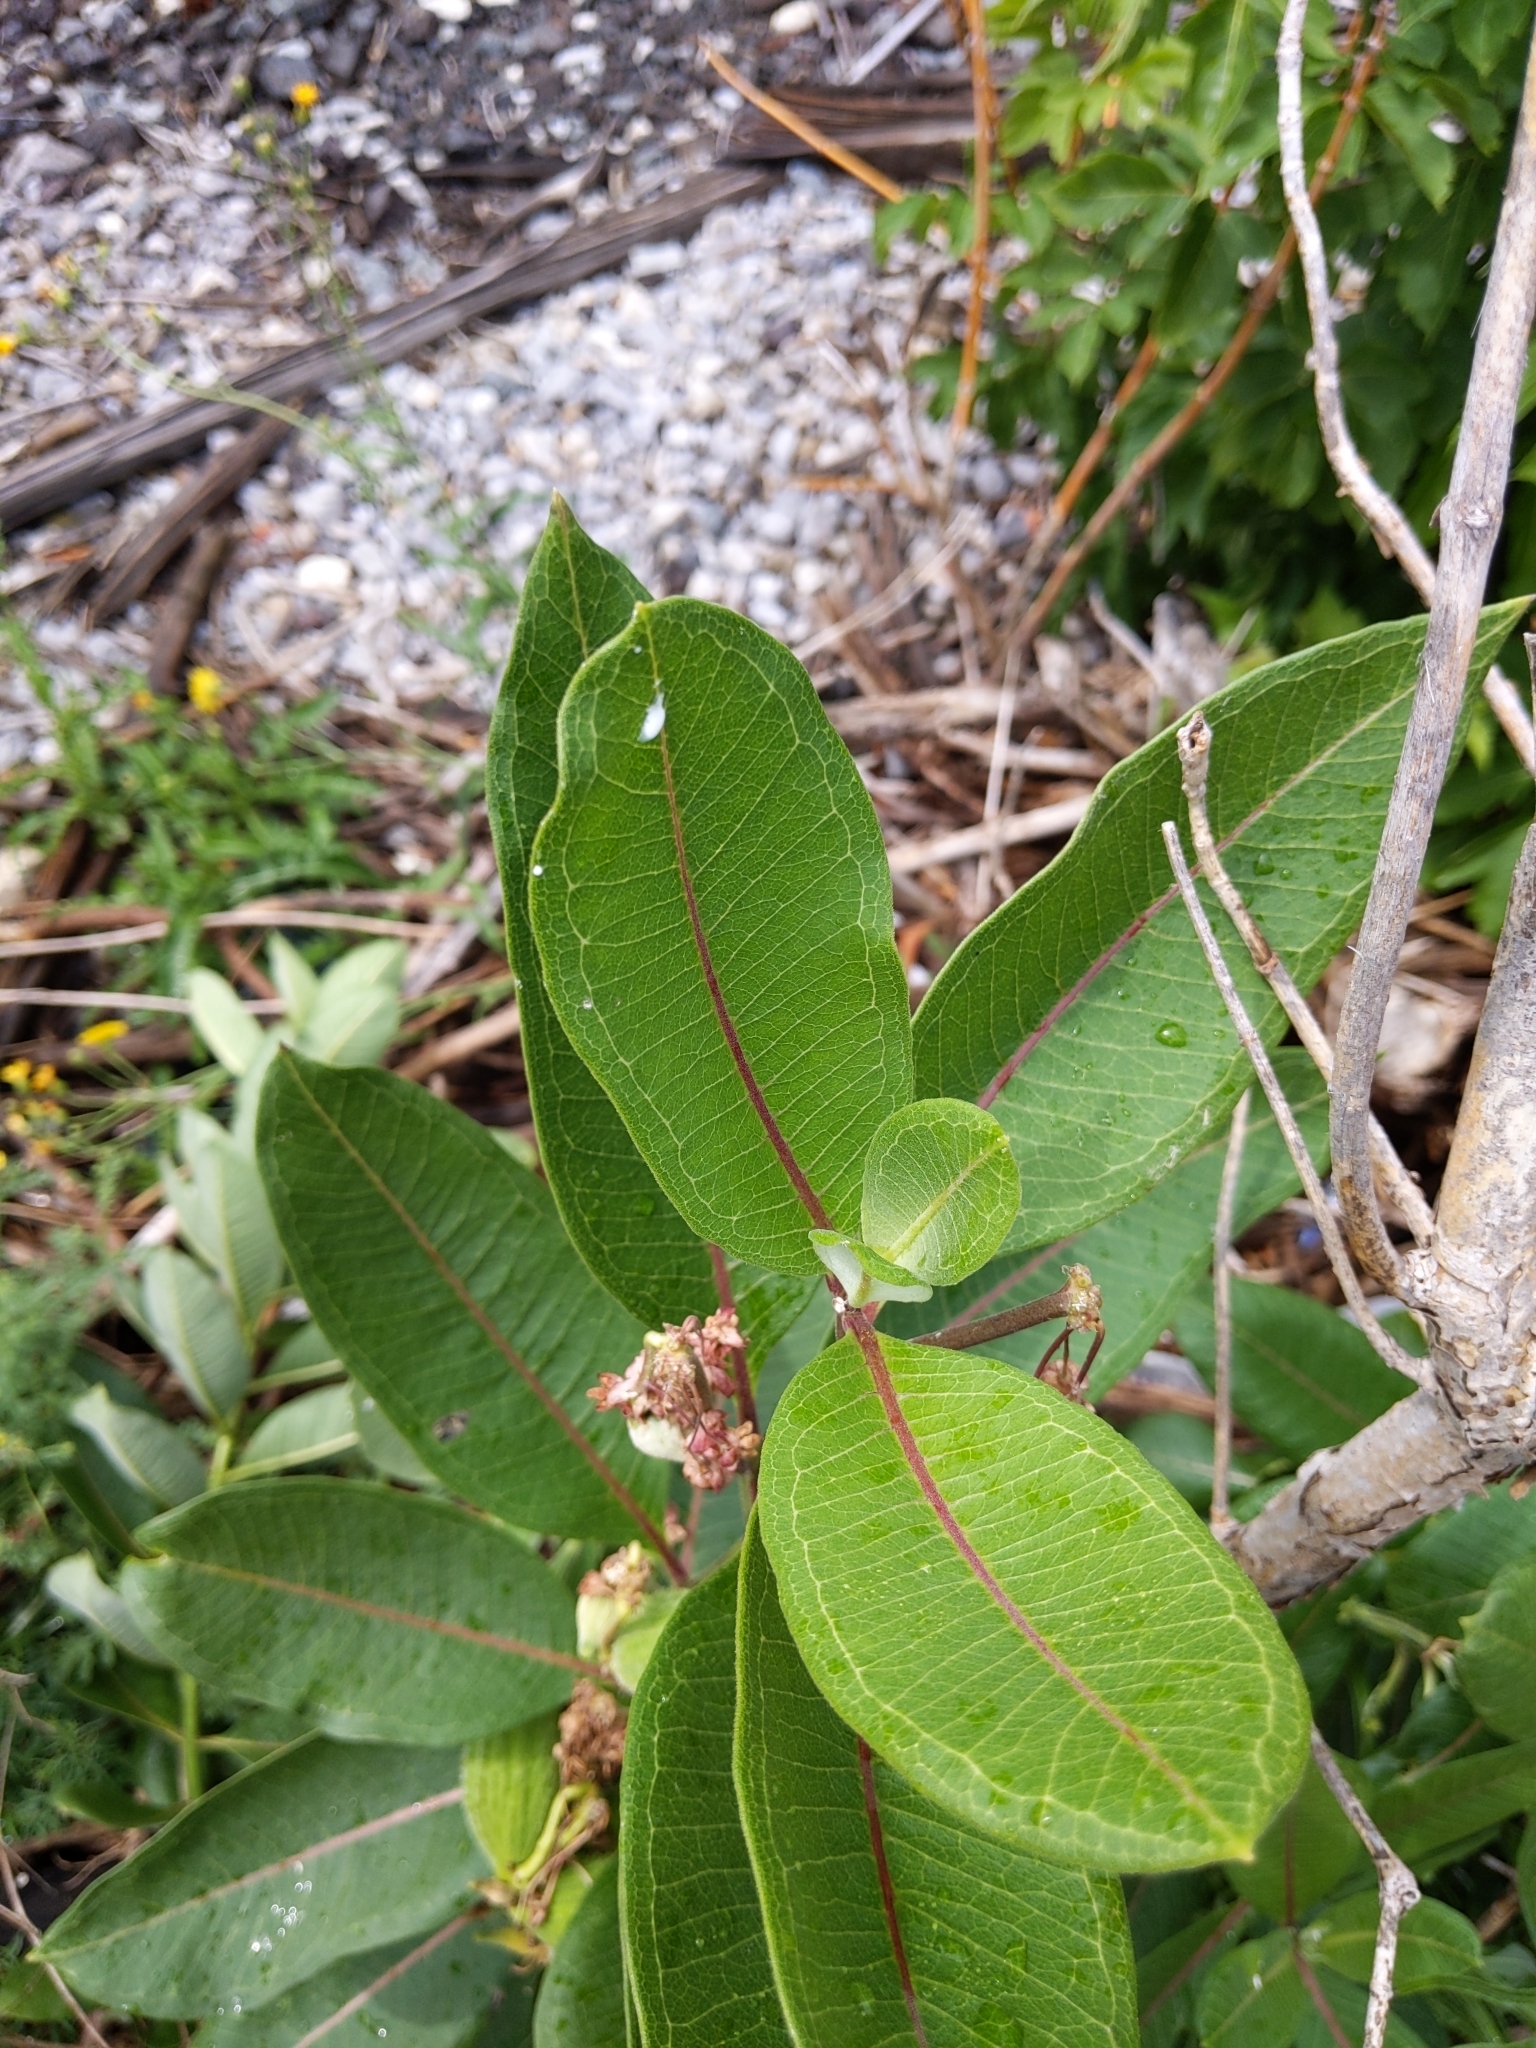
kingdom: Plantae
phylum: Tracheophyta
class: Magnoliopsida
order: Gentianales
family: Apocynaceae
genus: Asclepias
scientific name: Asclepias syriaca
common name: Common milkweed
